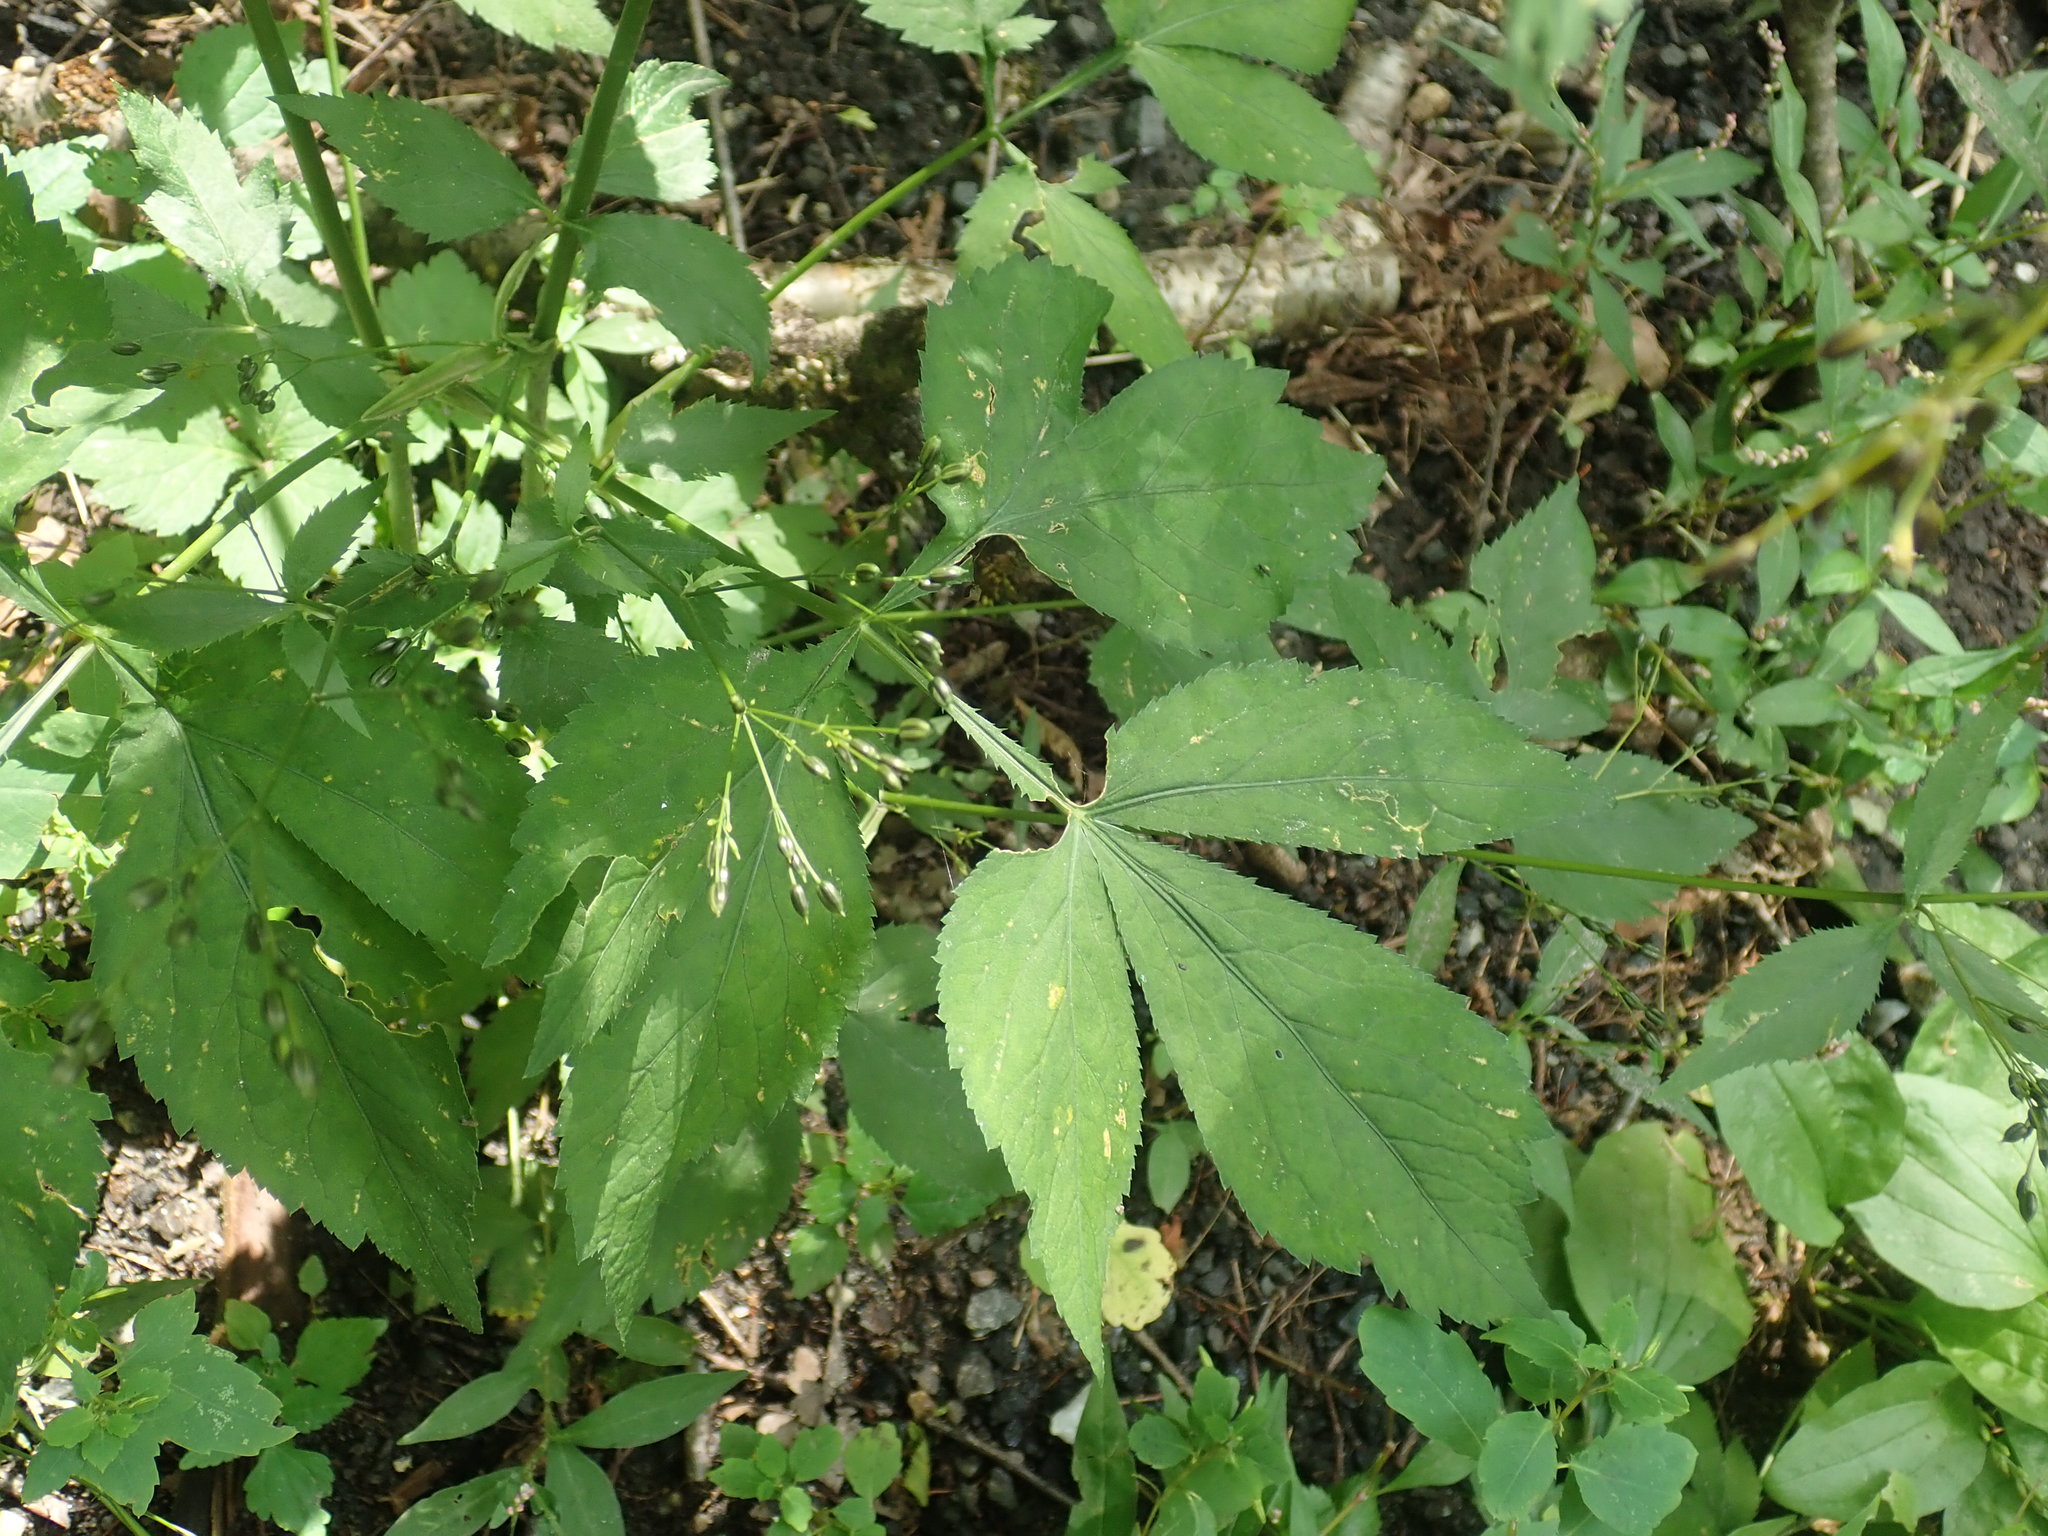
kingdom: Plantae
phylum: Tracheophyta
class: Magnoliopsida
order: Apiales
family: Apiaceae
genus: Cryptotaenia
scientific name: Cryptotaenia canadensis
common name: Honewort
